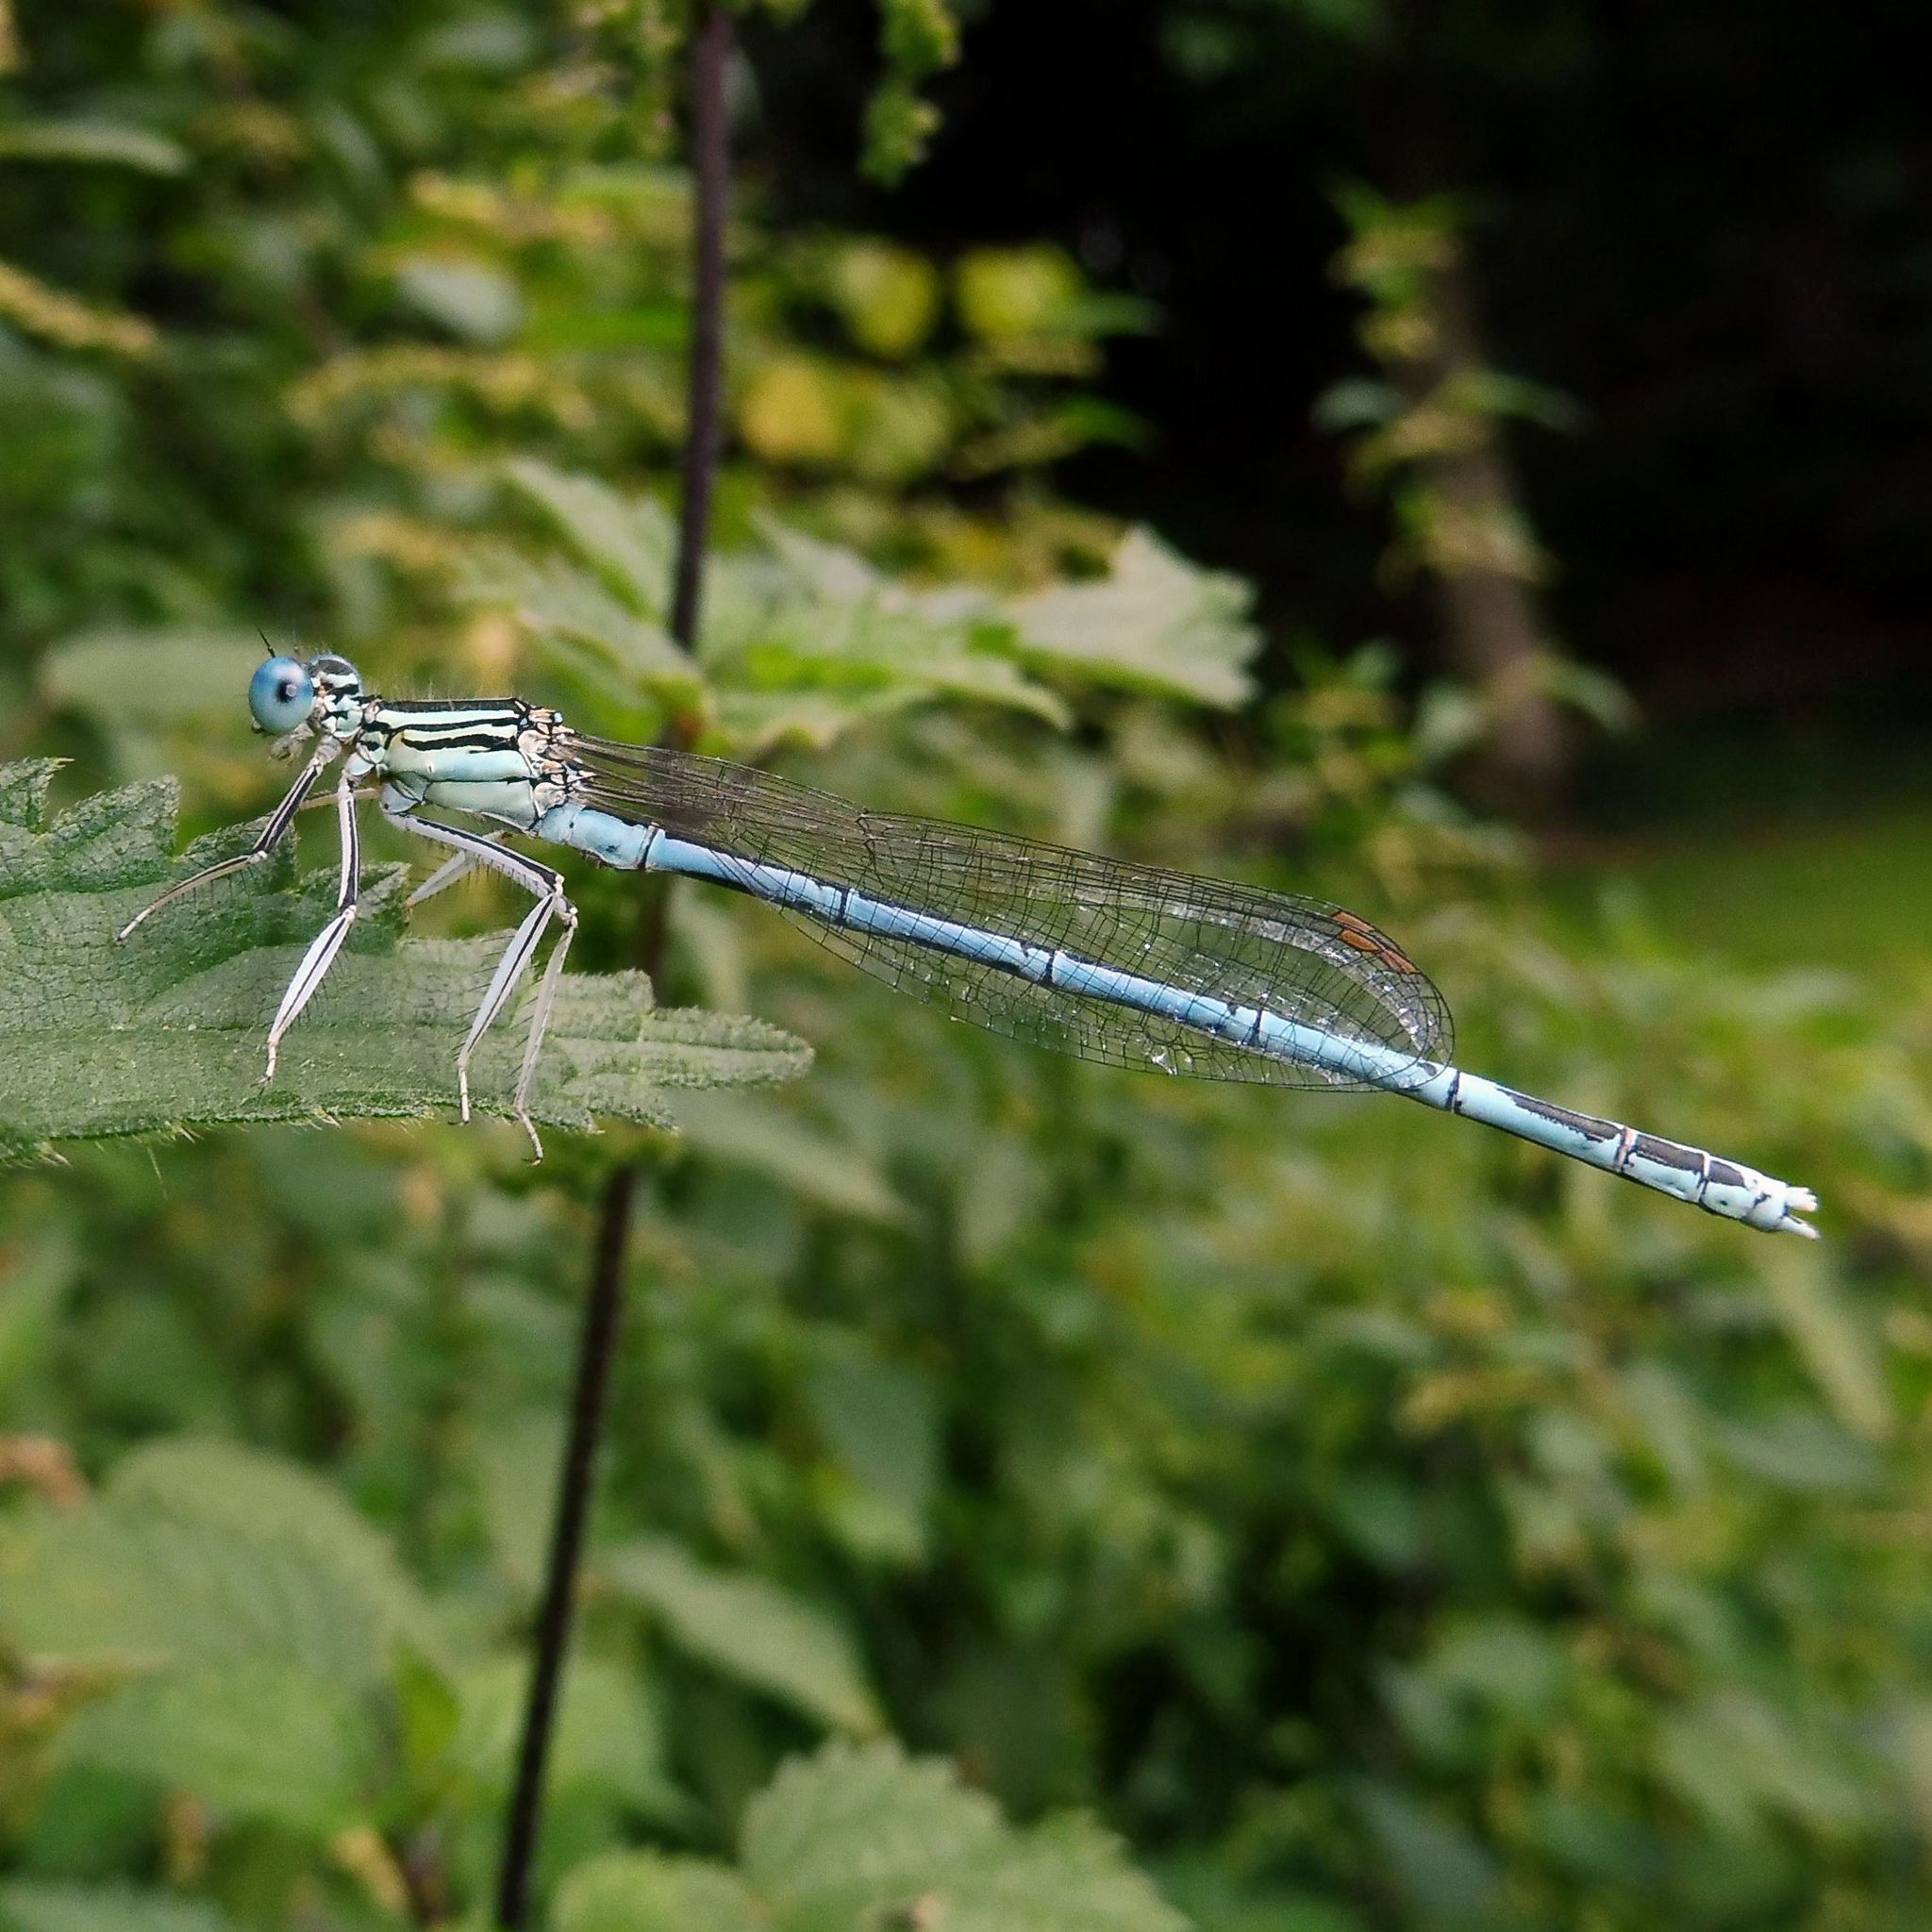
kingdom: Animalia
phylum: Arthropoda
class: Insecta
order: Odonata
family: Platycnemididae
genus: Platycnemis
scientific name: Platycnemis pennipes
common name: White-legged damselfly
